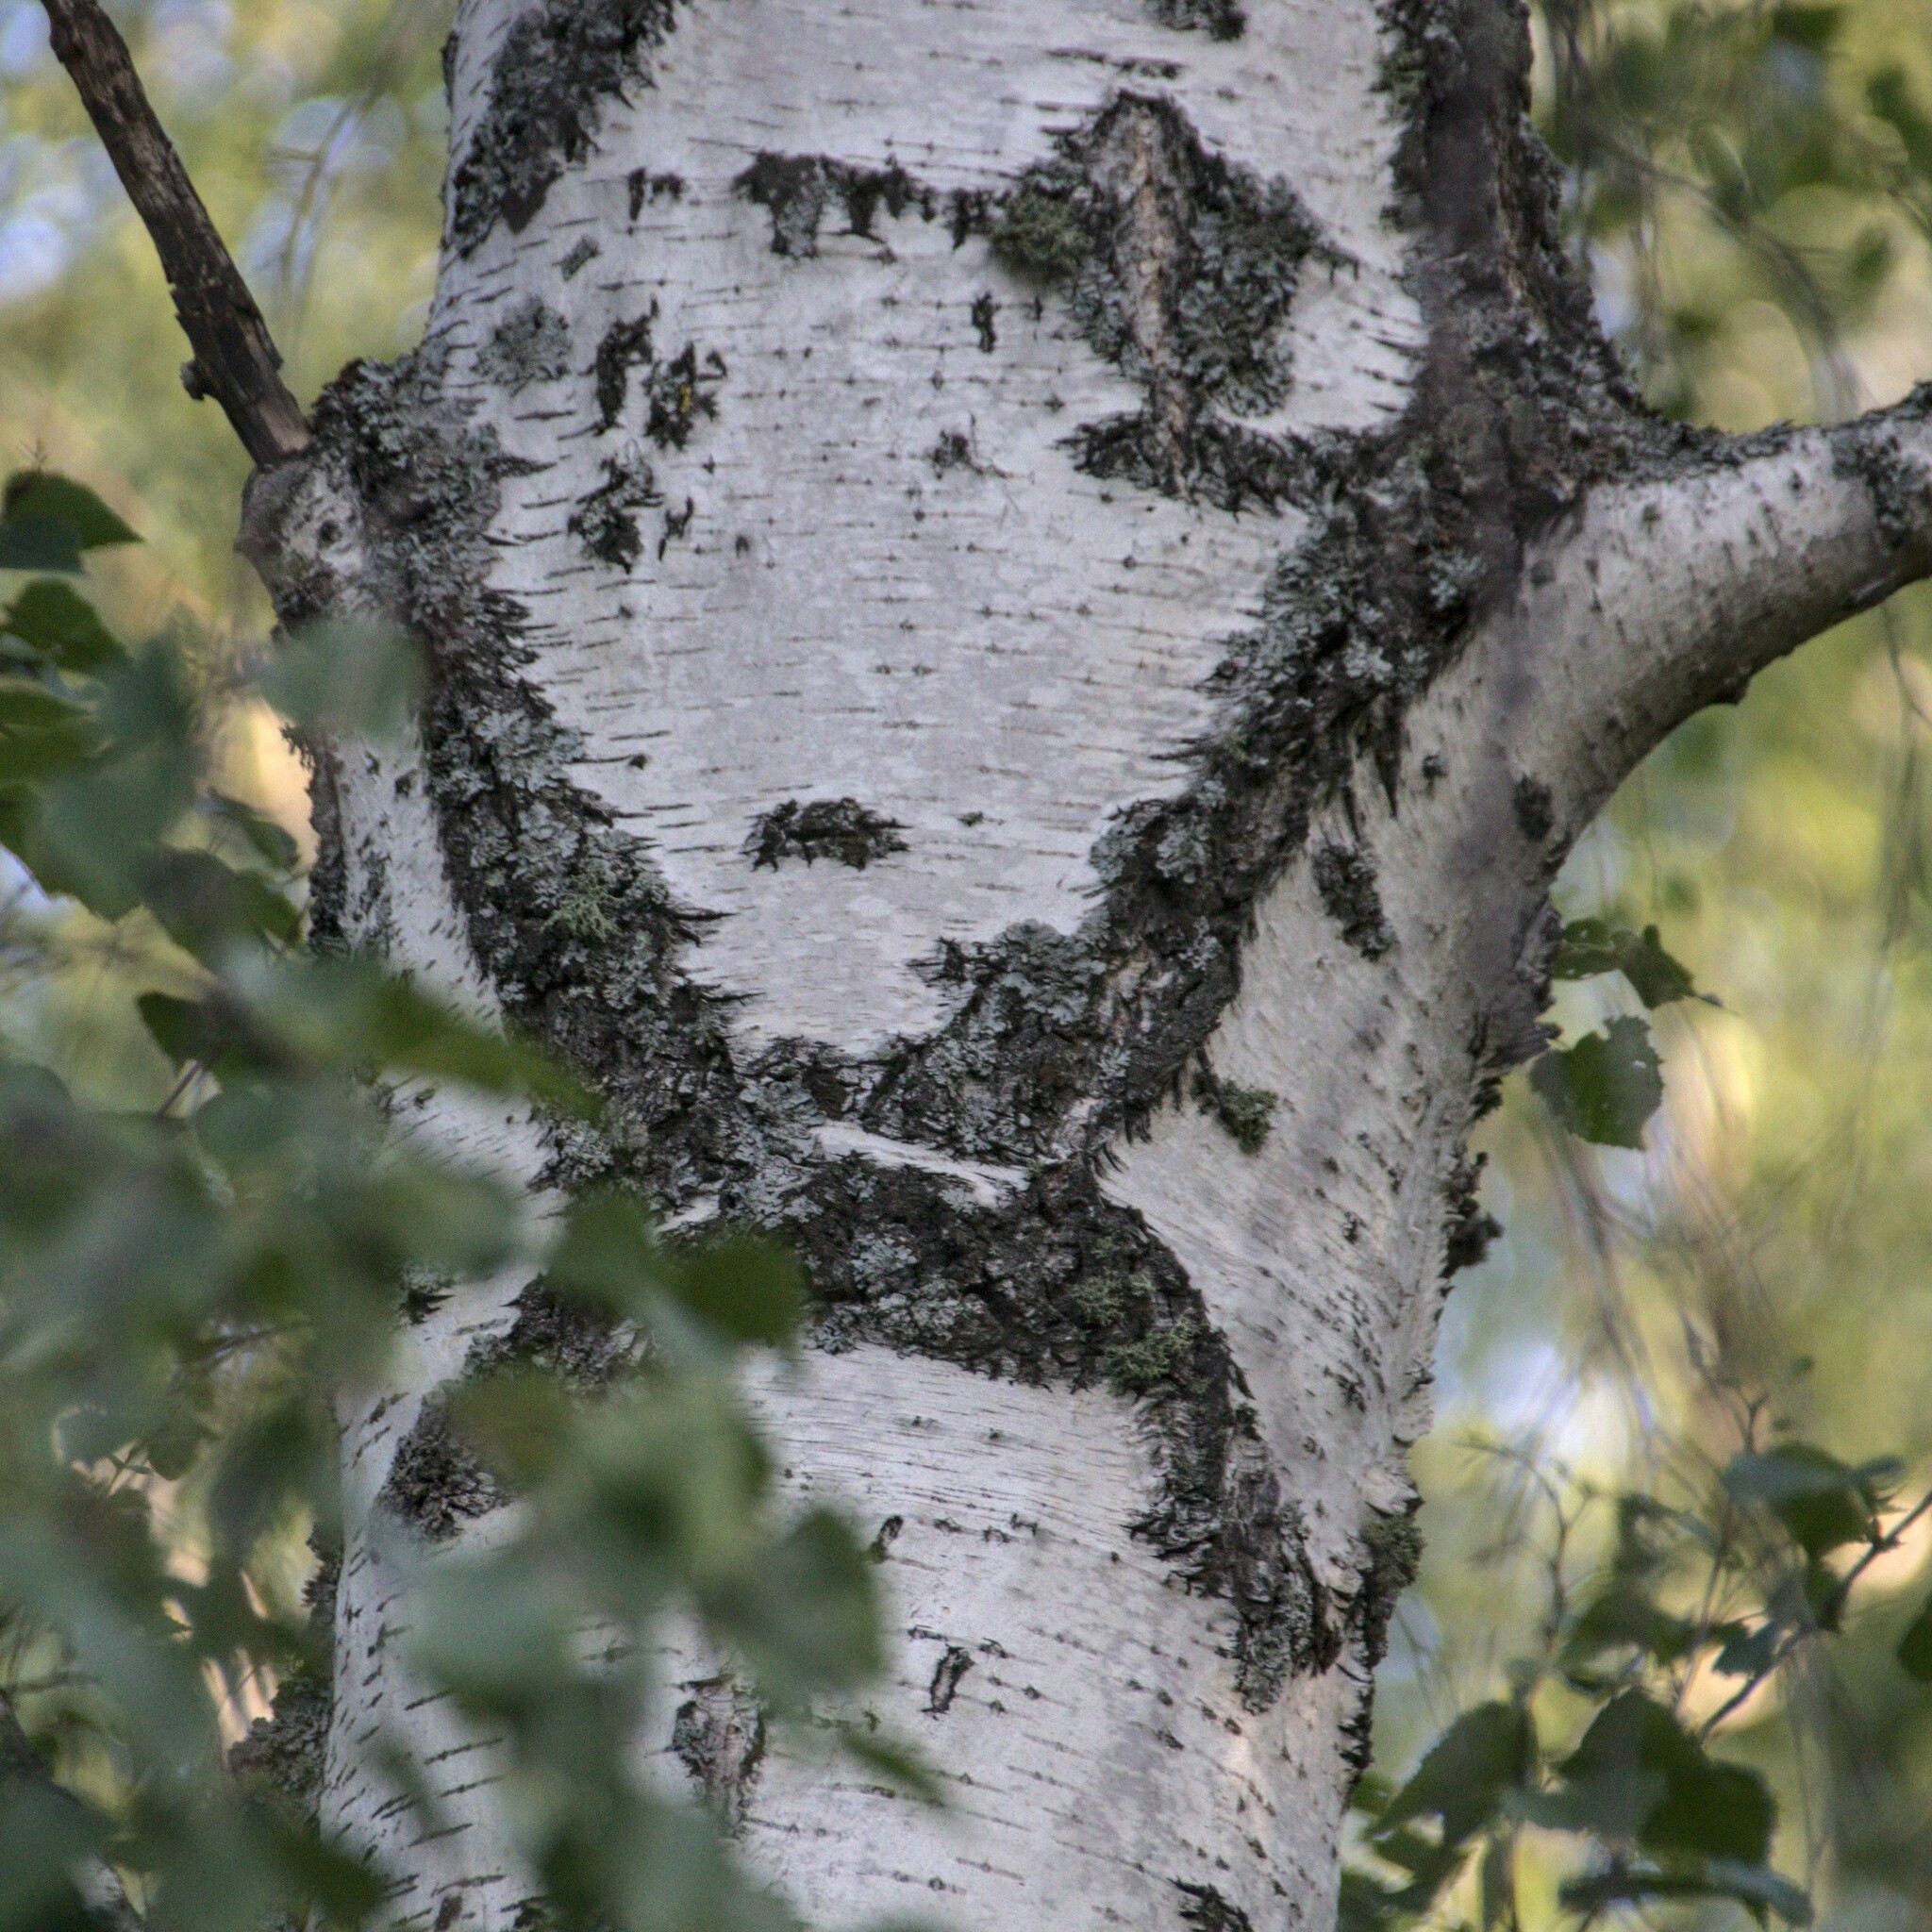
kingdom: Plantae
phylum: Tracheophyta
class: Magnoliopsida
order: Fagales
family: Betulaceae
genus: Betula
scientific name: Betula pubescens
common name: Downy birch
